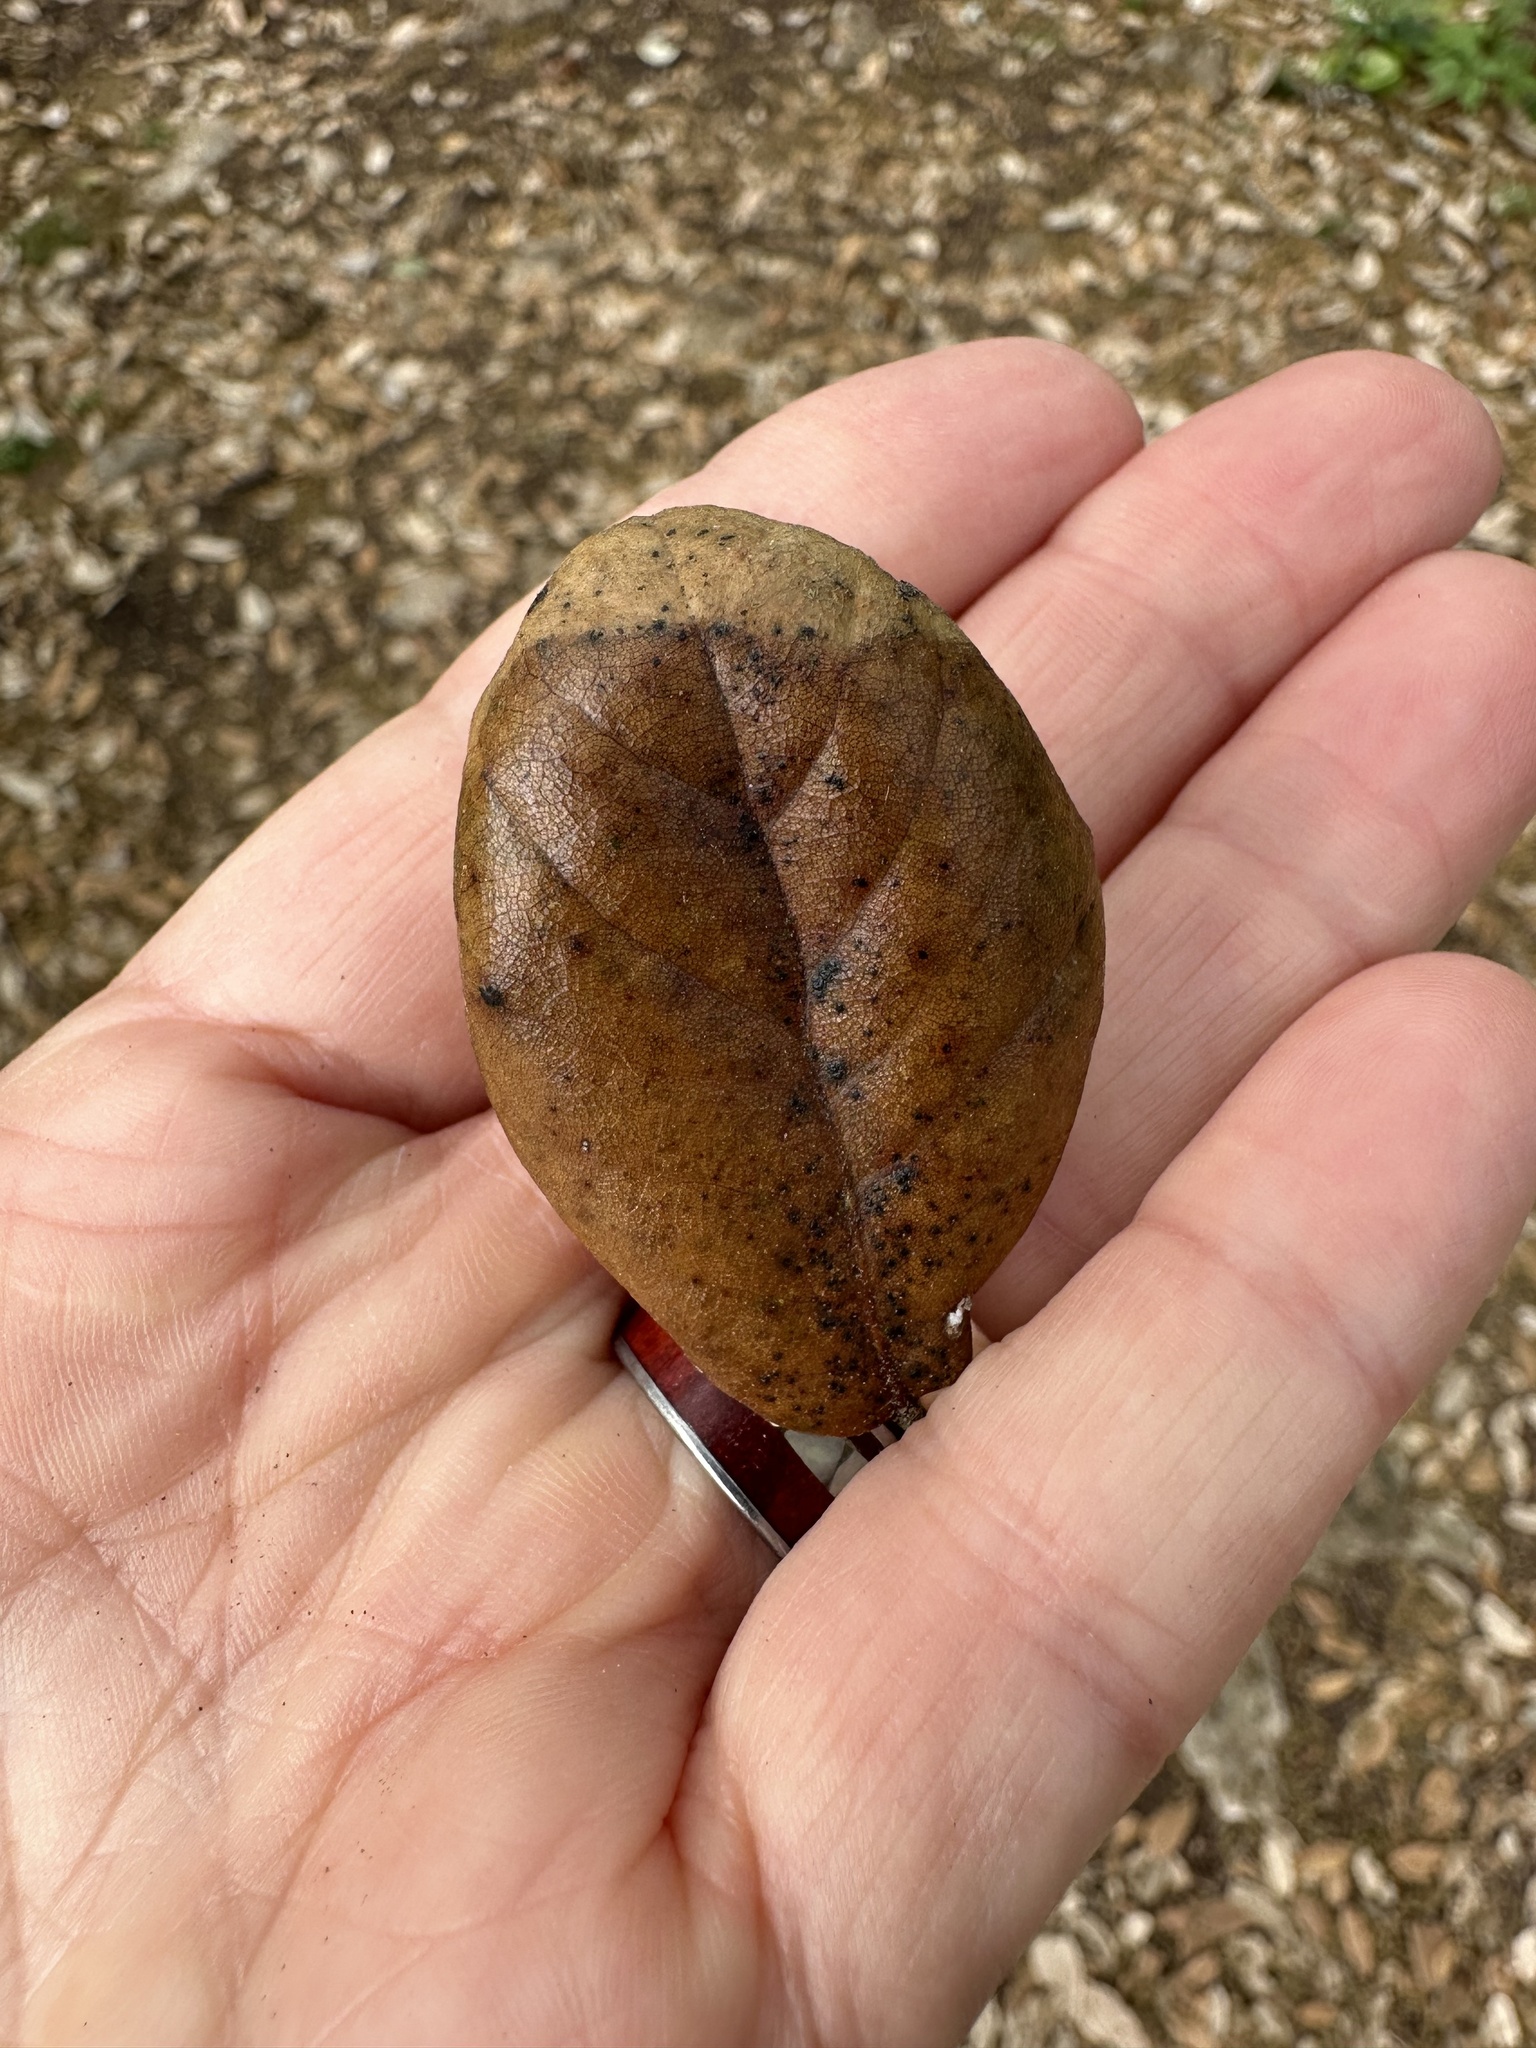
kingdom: Animalia
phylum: Arthropoda
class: Insecta
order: Hymenoptera
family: Cynipidae
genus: Belonocnema
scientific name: Belonocnema kinseyi
